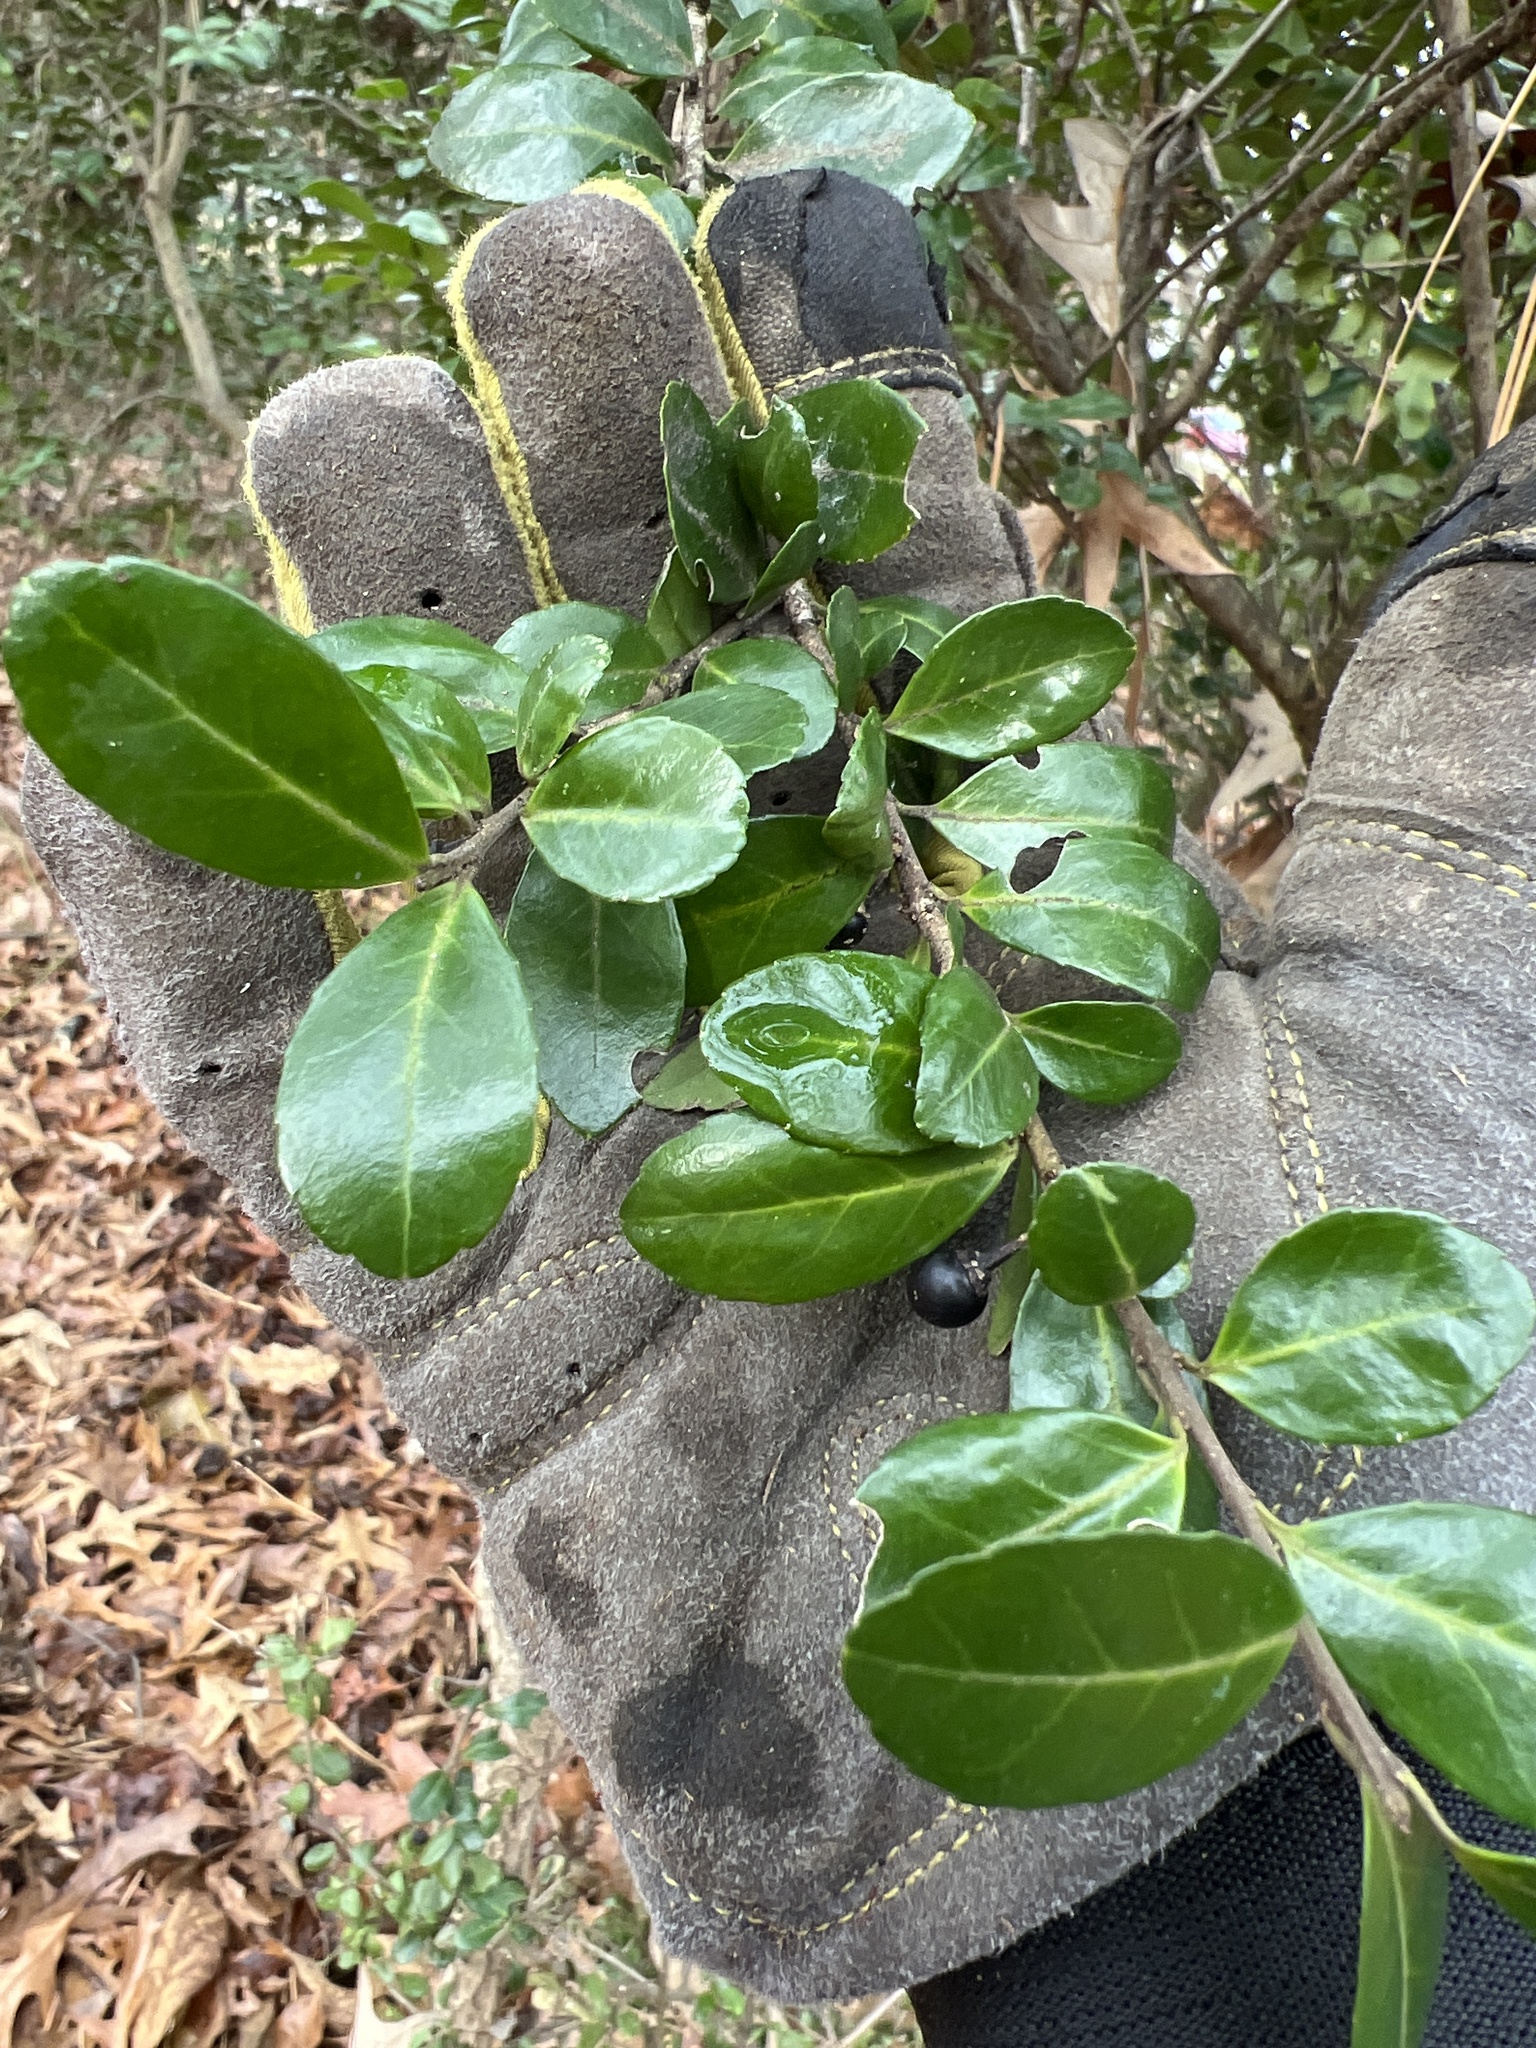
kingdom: Plantae
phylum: Tracheophyta
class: Magnoliopsida
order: Aquifoliales
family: Aquifoliaceae
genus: Ilex
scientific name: Ilex crenata
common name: Japanese holly
